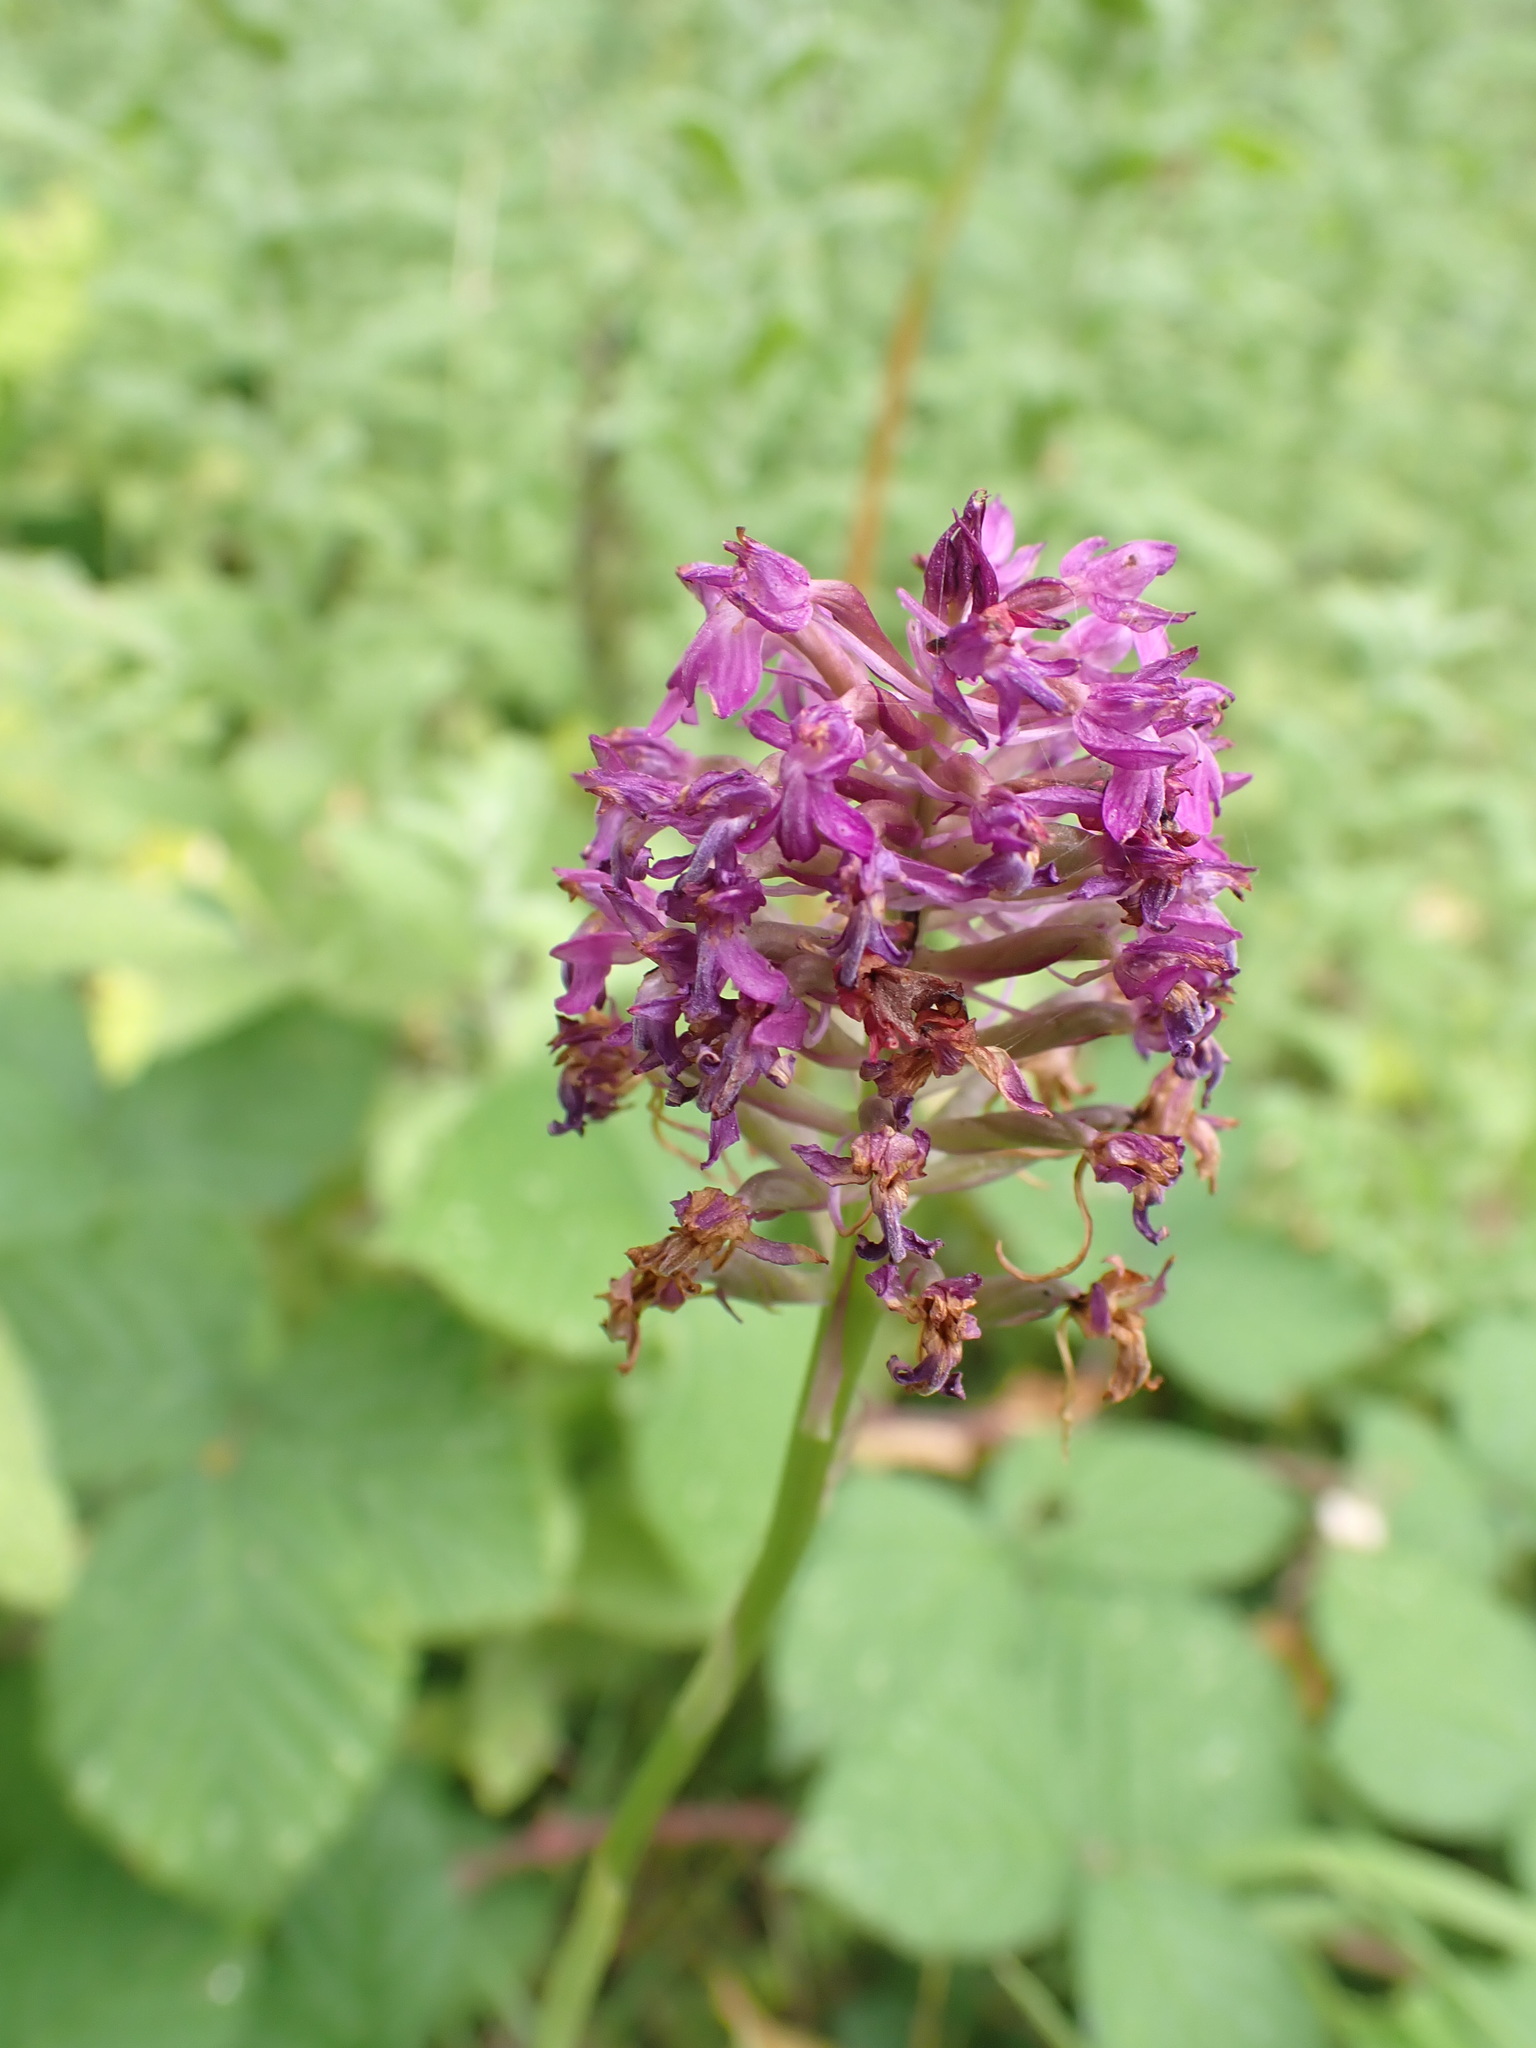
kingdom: Plantae
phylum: Tracheophyta
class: Liliopsida
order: Asparagales
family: Orchidaceae
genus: Anacamptis
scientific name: Anacamptis pyramidalis
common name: Pyramidal orchid
